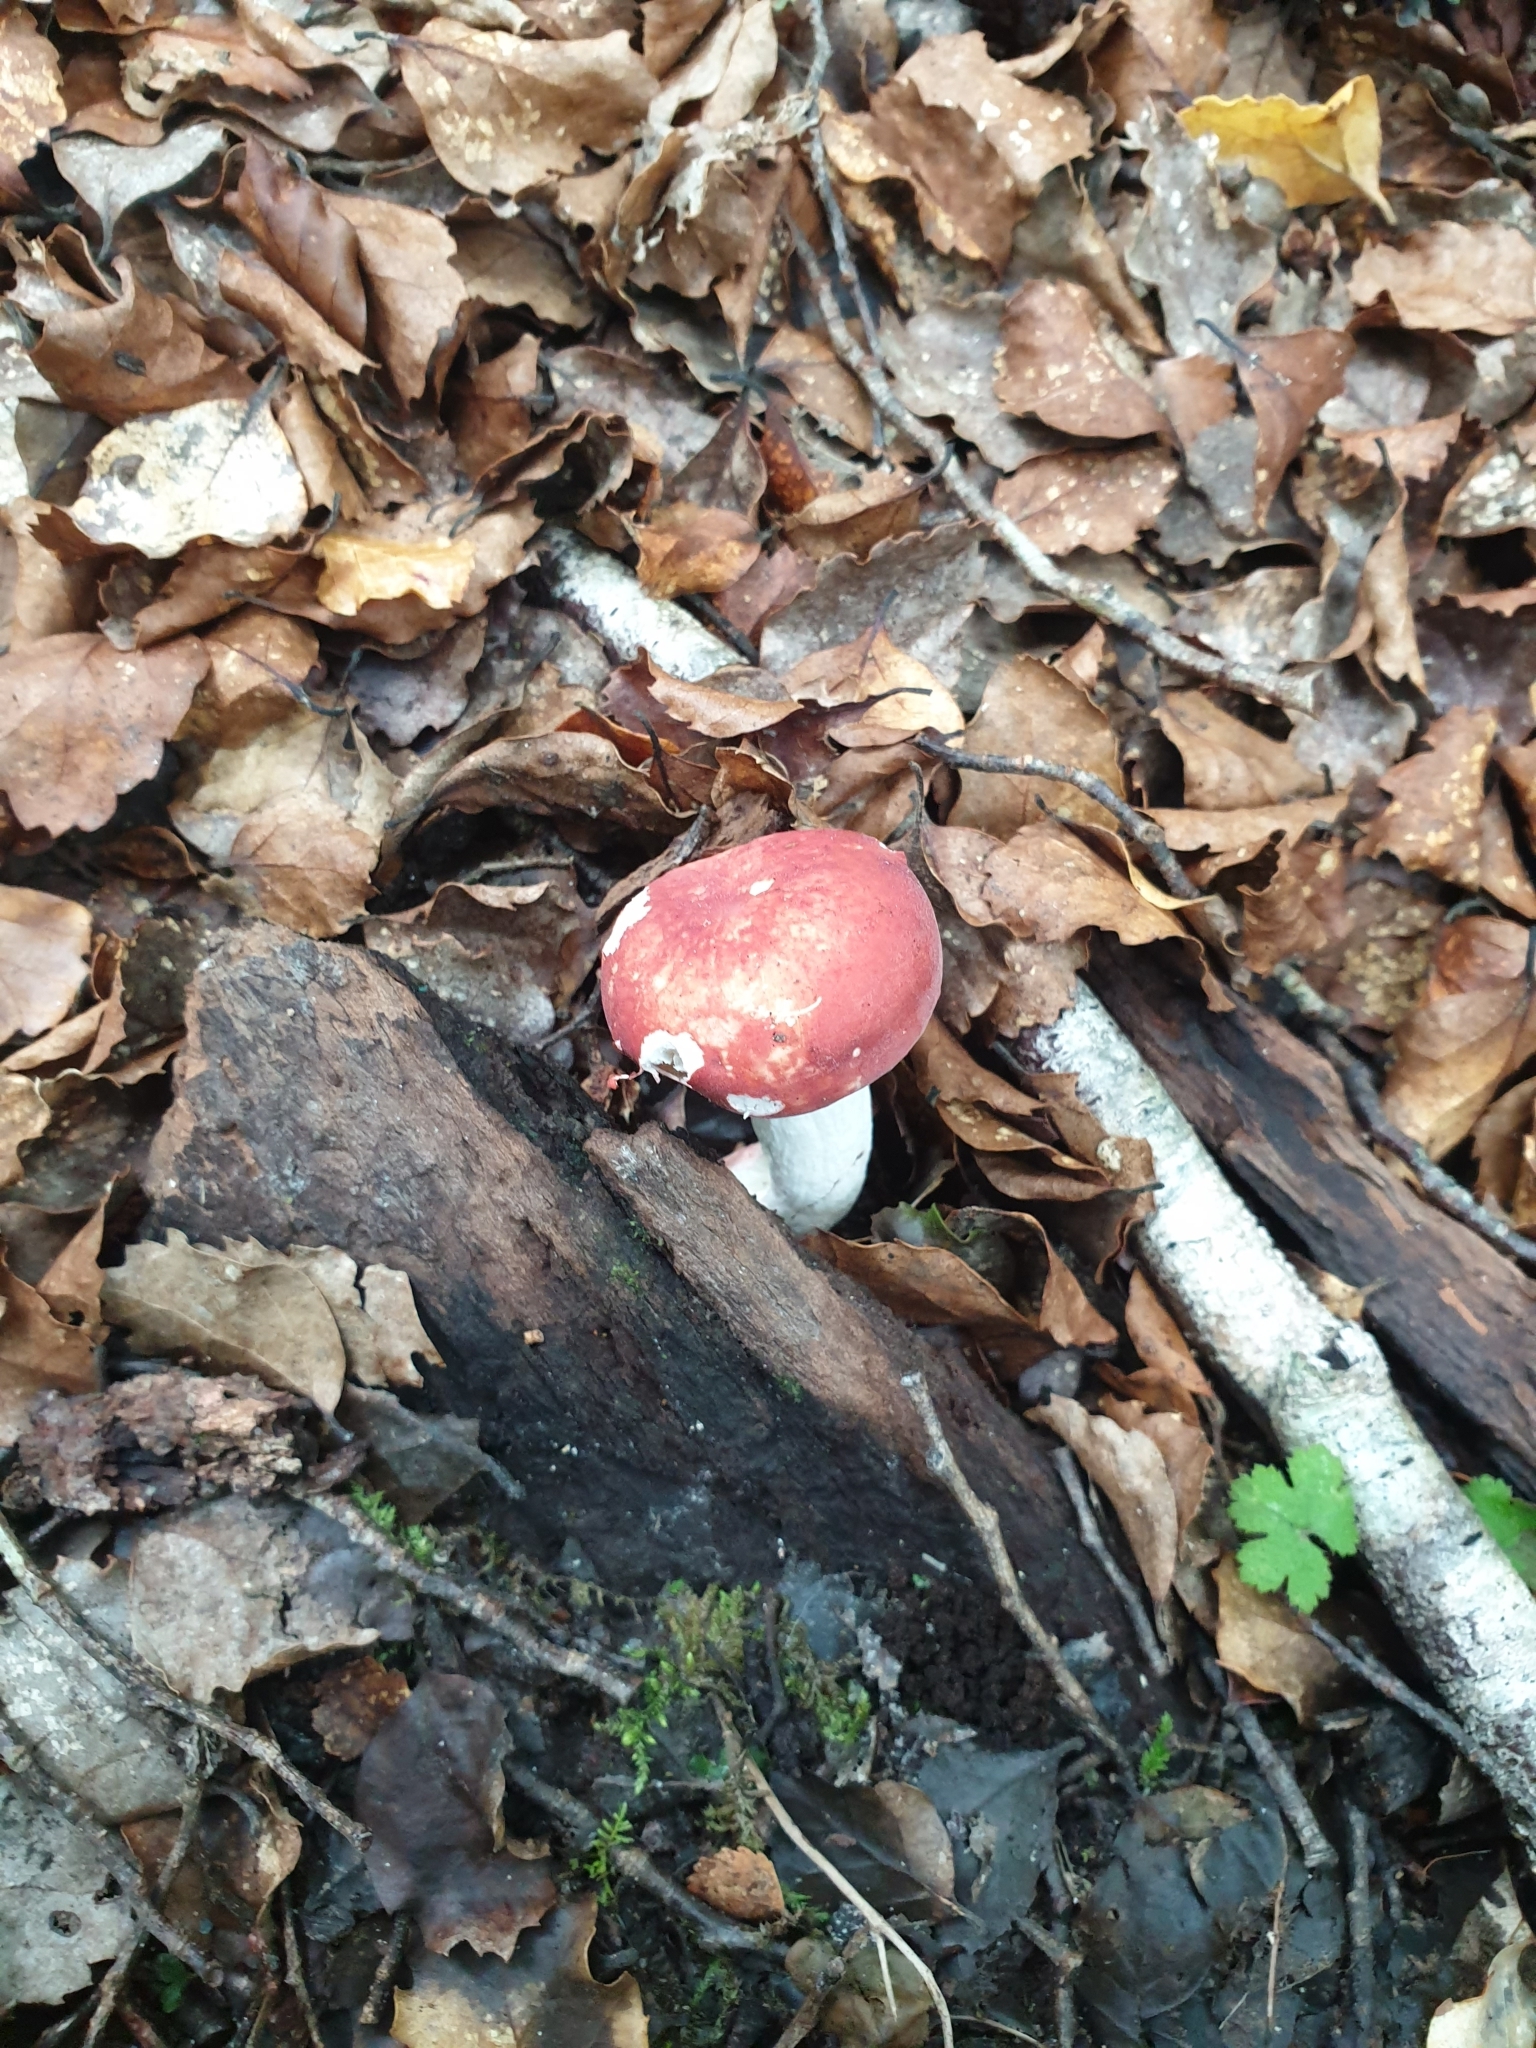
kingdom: Fungi
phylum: Basidiomycota
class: Agaricomycetes
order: Russulales
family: Russulaceae
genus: Russula
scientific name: Russula kermesina
